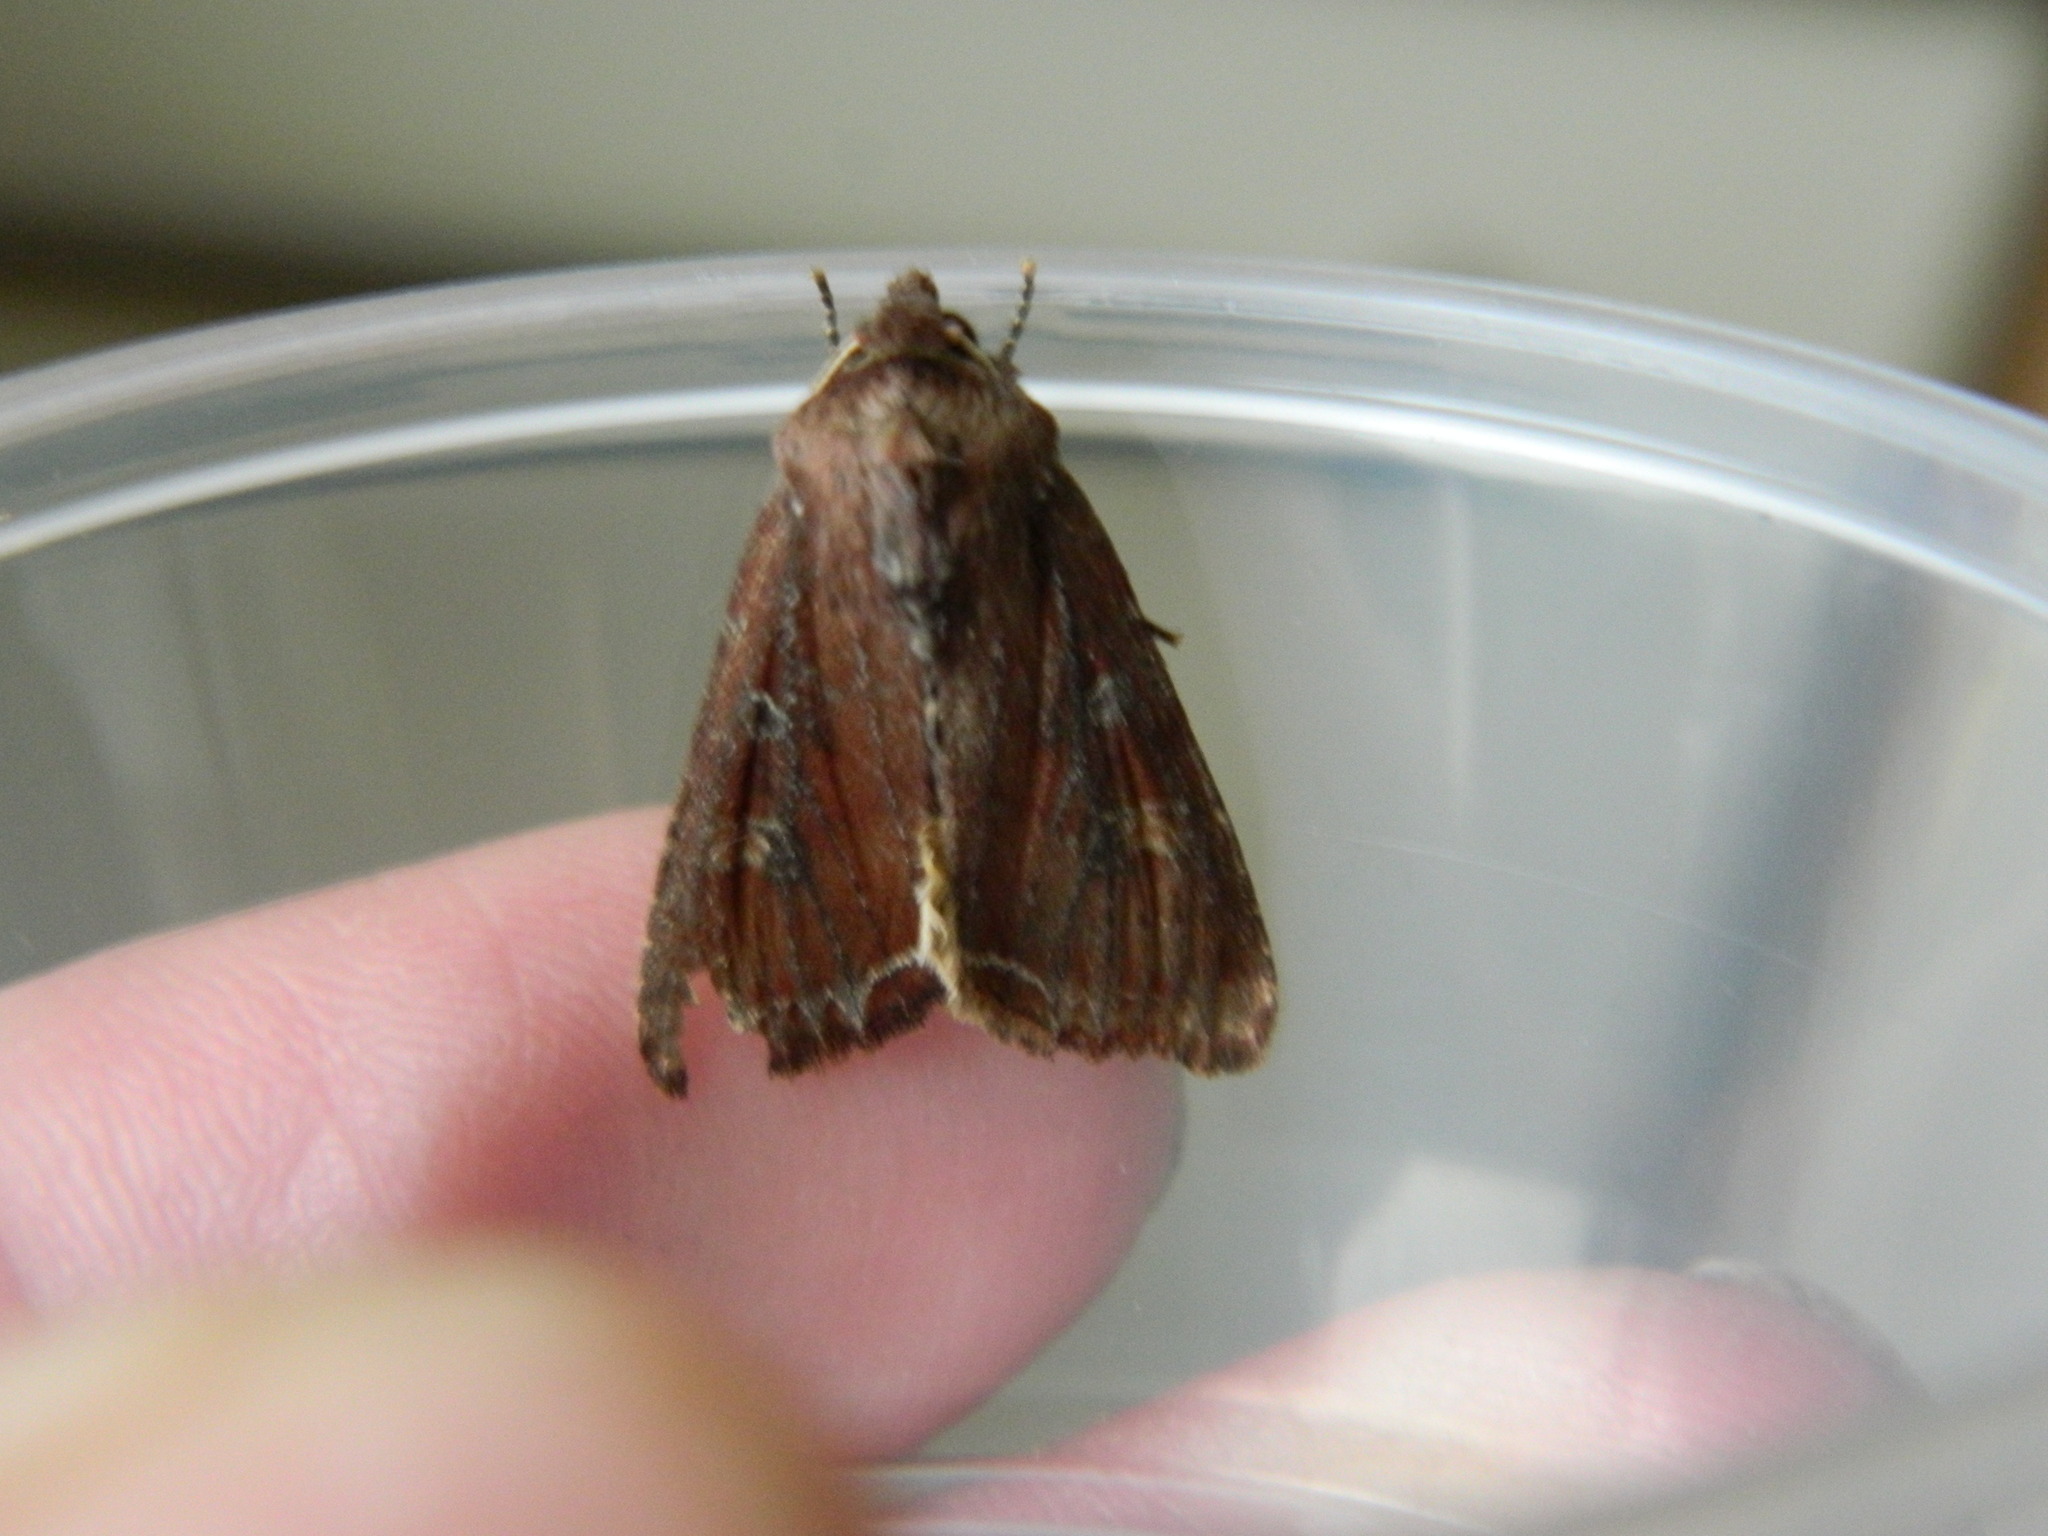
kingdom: Animalia
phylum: Arthropoda
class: Insecta
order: Lepidoptera
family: Noctuidae
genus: Lacanobia
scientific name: Lacanobia oleracea
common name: Bright-line brown-eye
